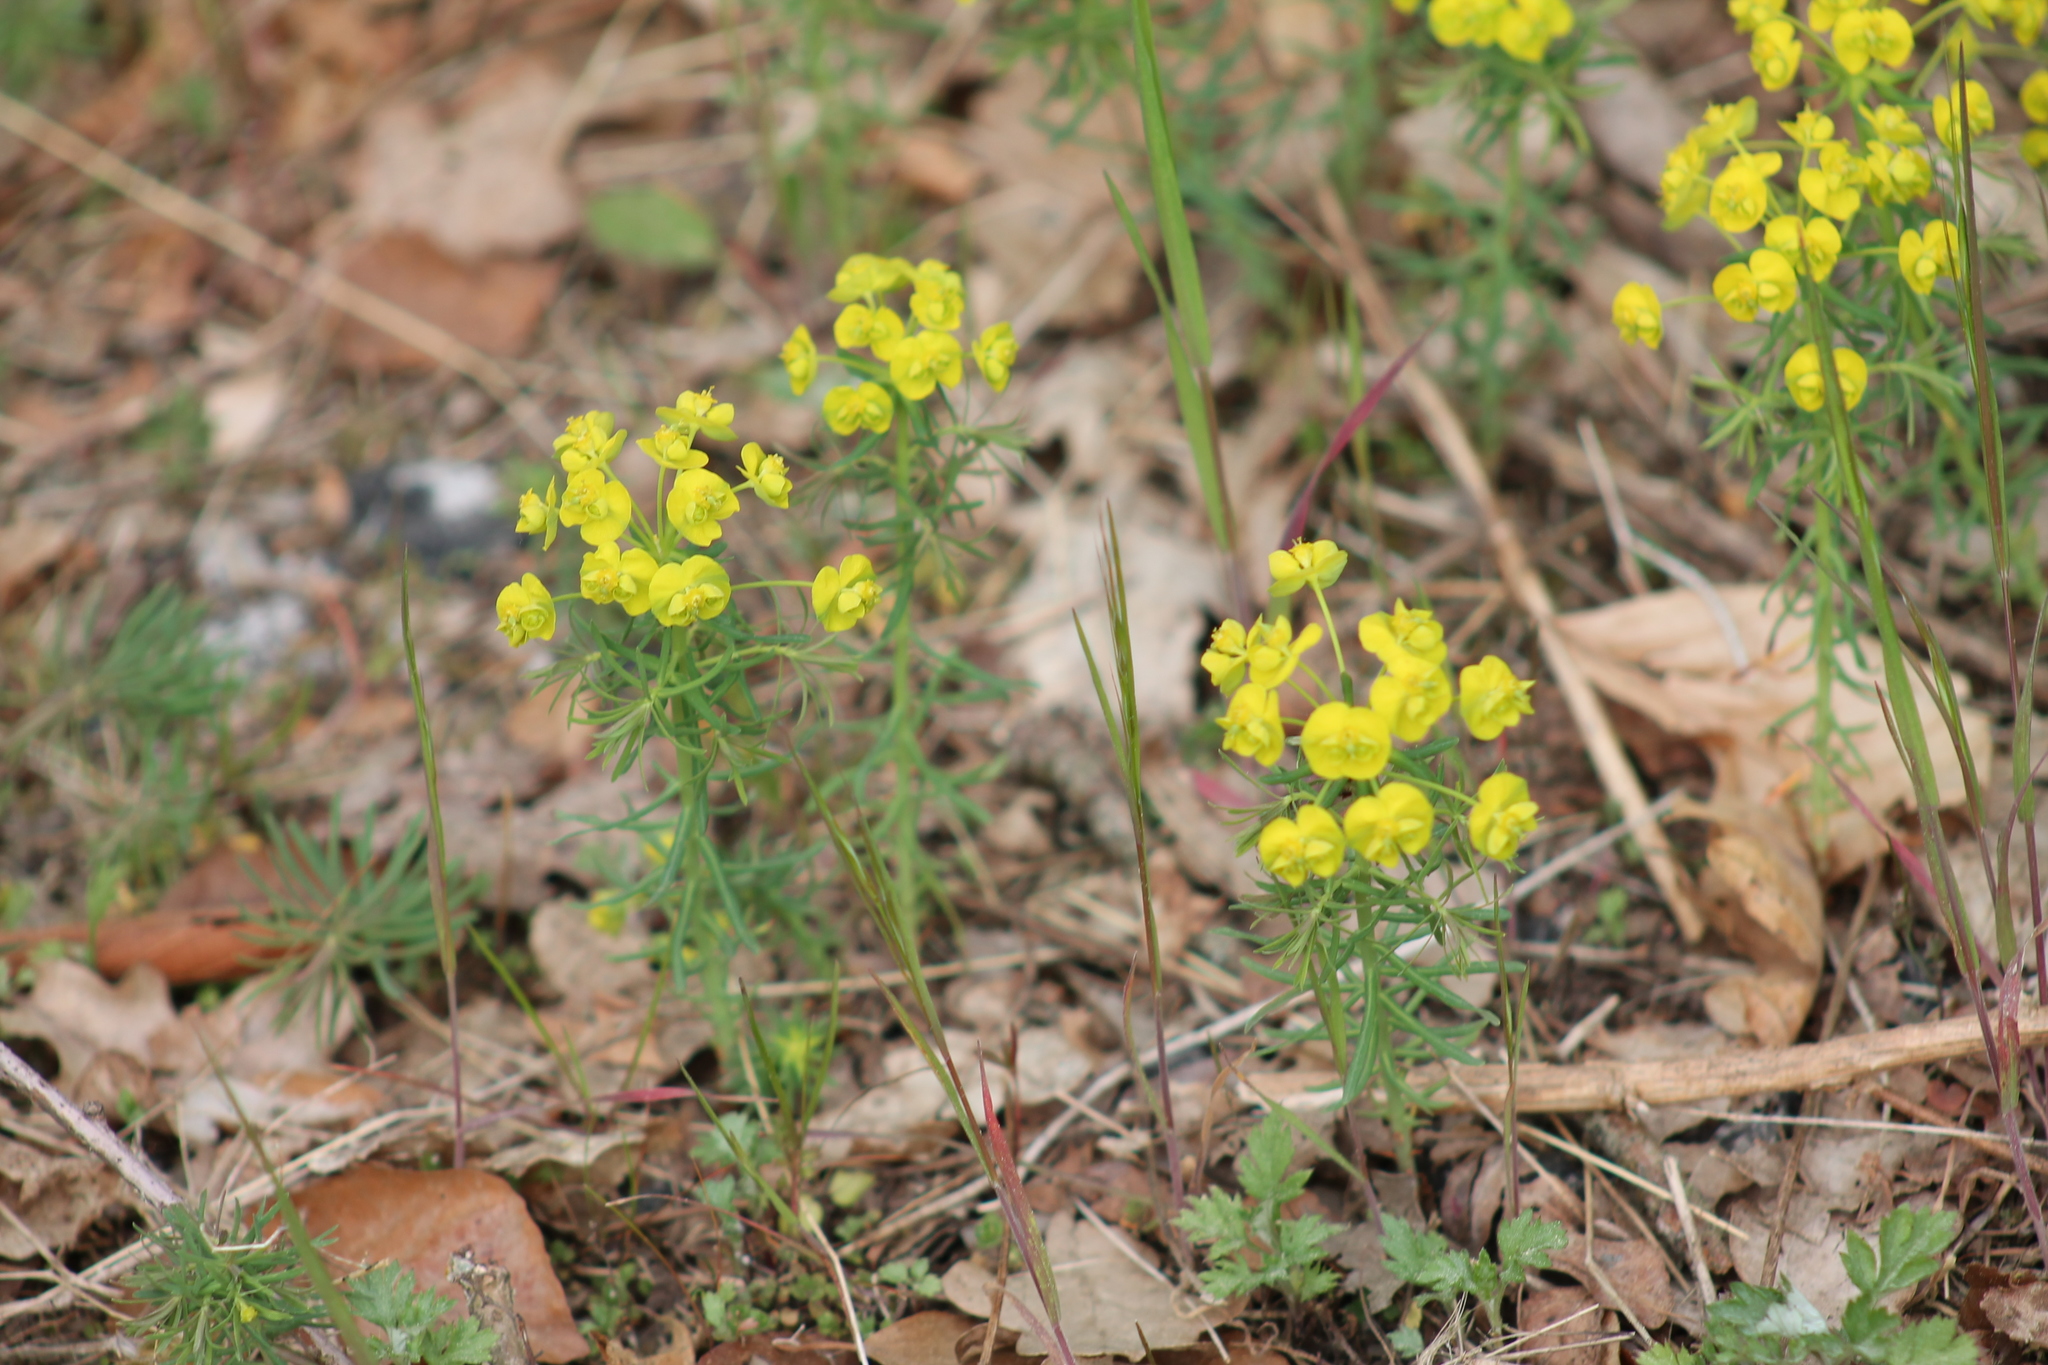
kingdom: Plantae
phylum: Tracheophyta
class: Magnoliopsida
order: Malpighiales
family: Euphorbiaceae
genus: Euphorbia
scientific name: Euphorbia cyparissias
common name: Cypress spurge
